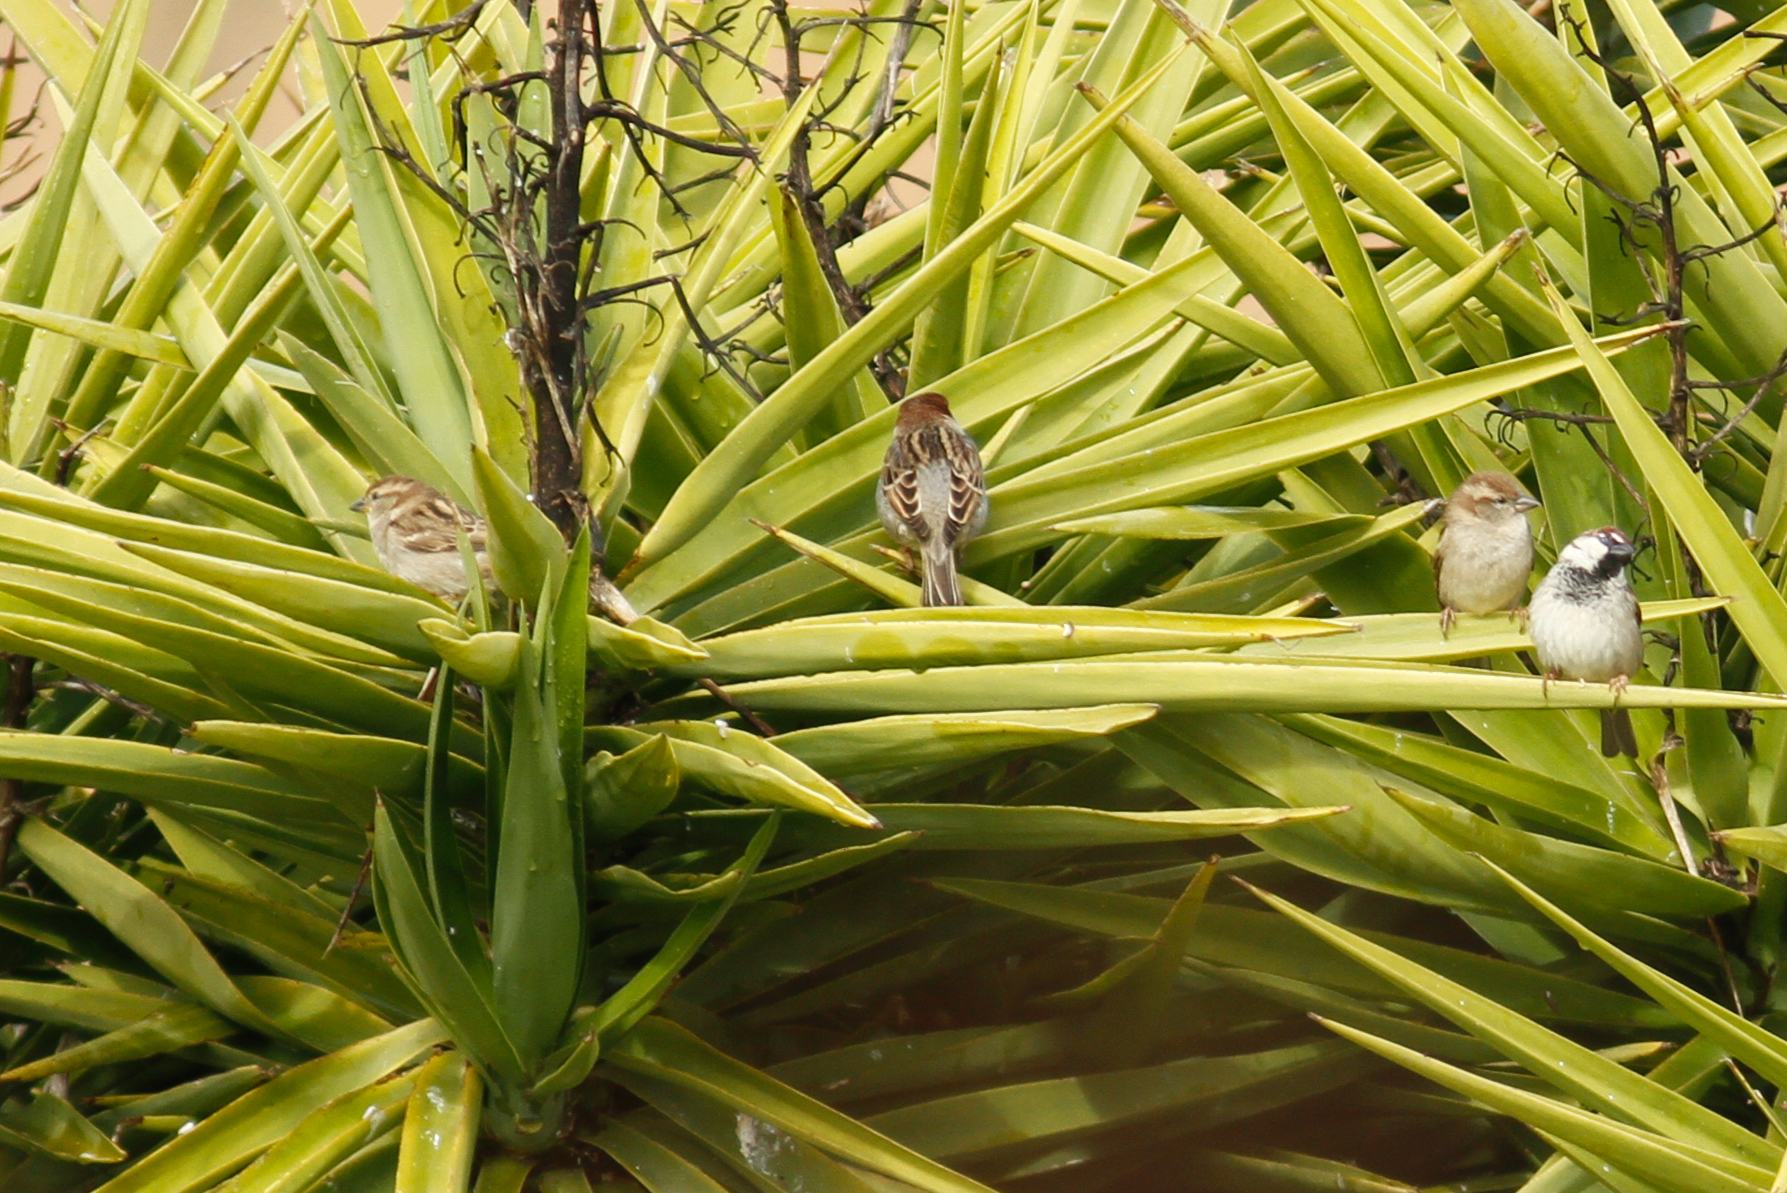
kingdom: Animalia
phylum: Chordata
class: Aves
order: Passeriformes
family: Passeridae
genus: Passer
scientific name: Passer italiae
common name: Italian sparrow
